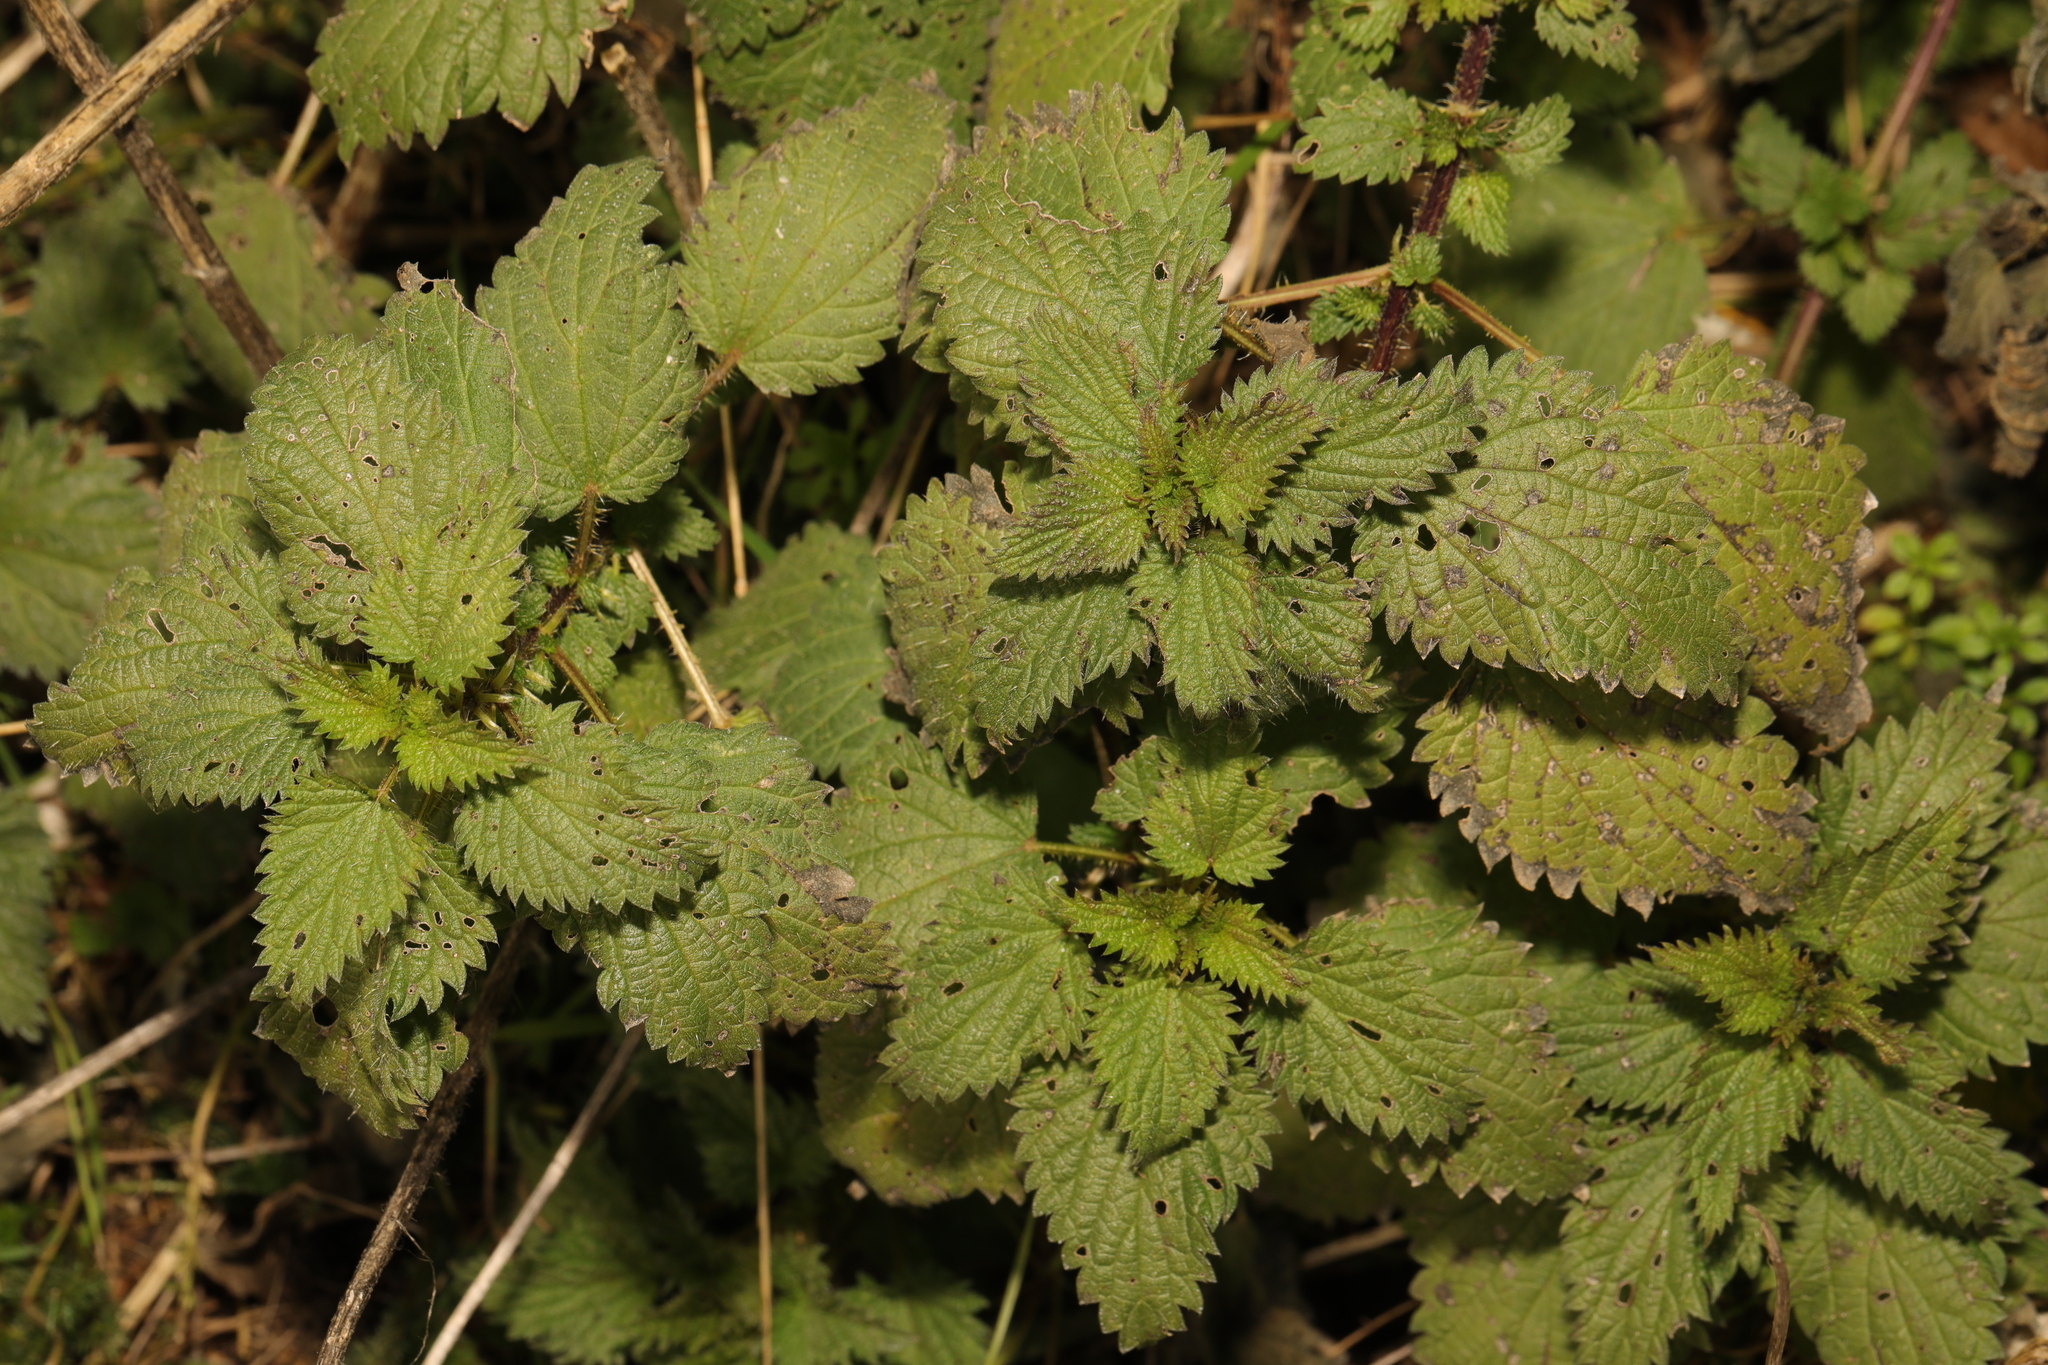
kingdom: Plantae
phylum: Tracheophyta
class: Magnoliopsida
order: Rosales
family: Urticaceae
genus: Urtica
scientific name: Urtica dioica
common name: Common nettle
